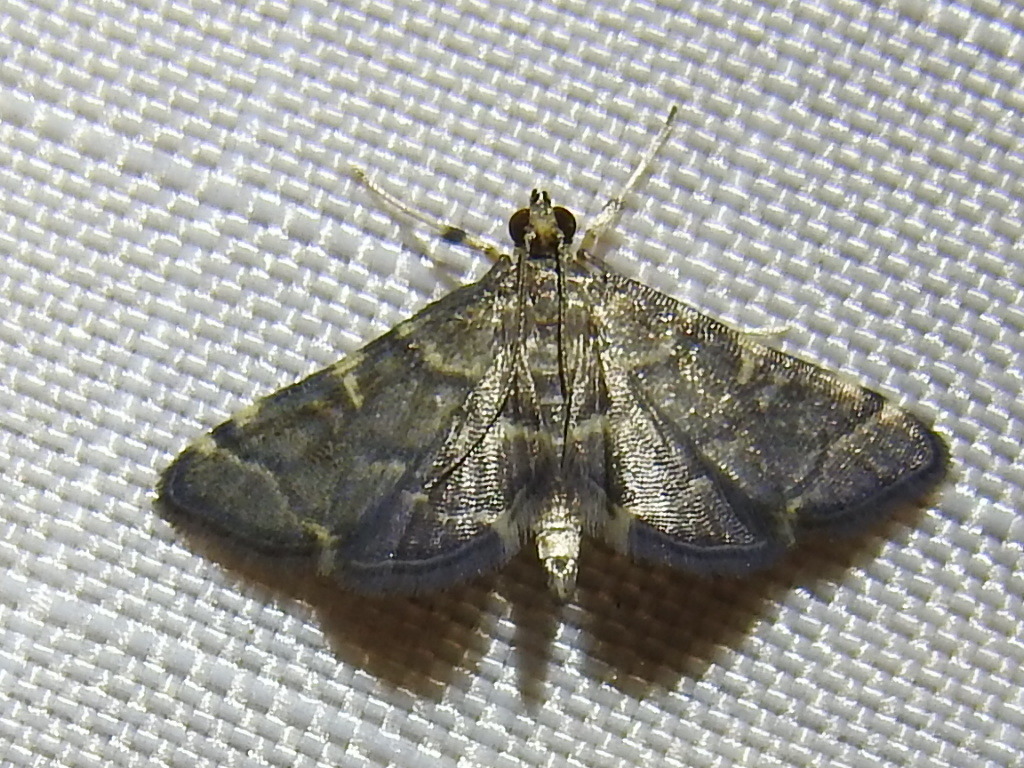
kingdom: Animalia
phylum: Arthropoda
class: Insecta
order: Lepidoptera
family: Crambidae
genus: Anageshna
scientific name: Anageshna primordialis
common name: Yellow-spotted webworm moth
